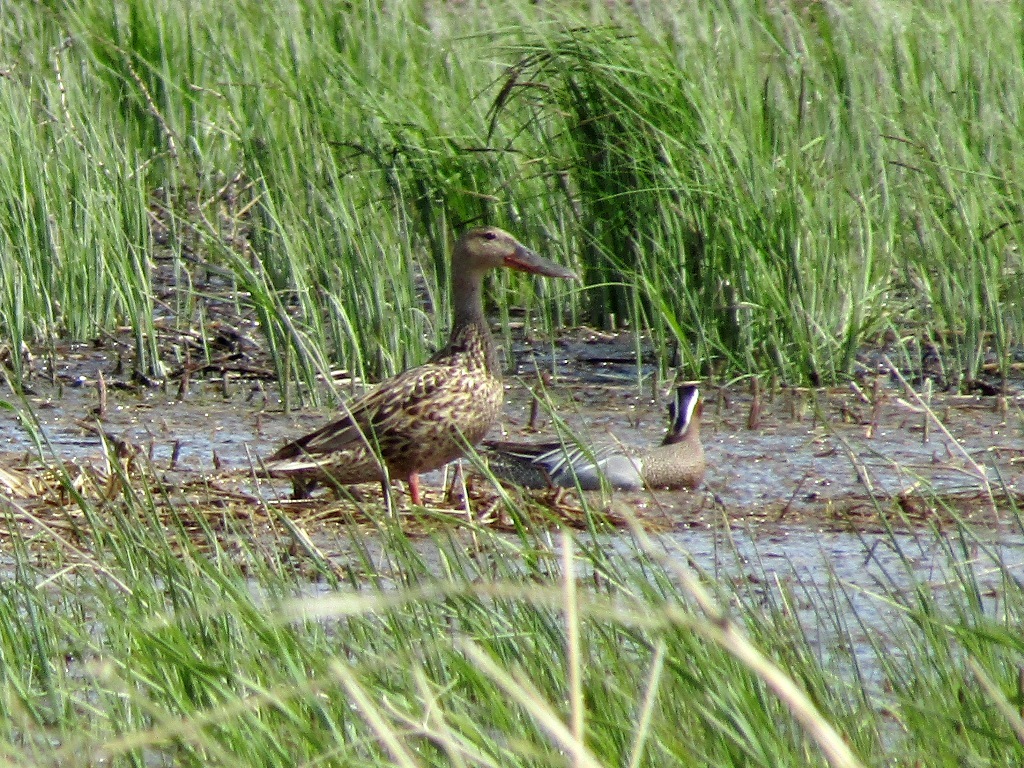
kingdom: Animalia
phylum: Chordata
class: Aves
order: Anseriformes
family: Anatidae
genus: Spatula
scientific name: Spatula clypeata
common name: Northern shoveler
